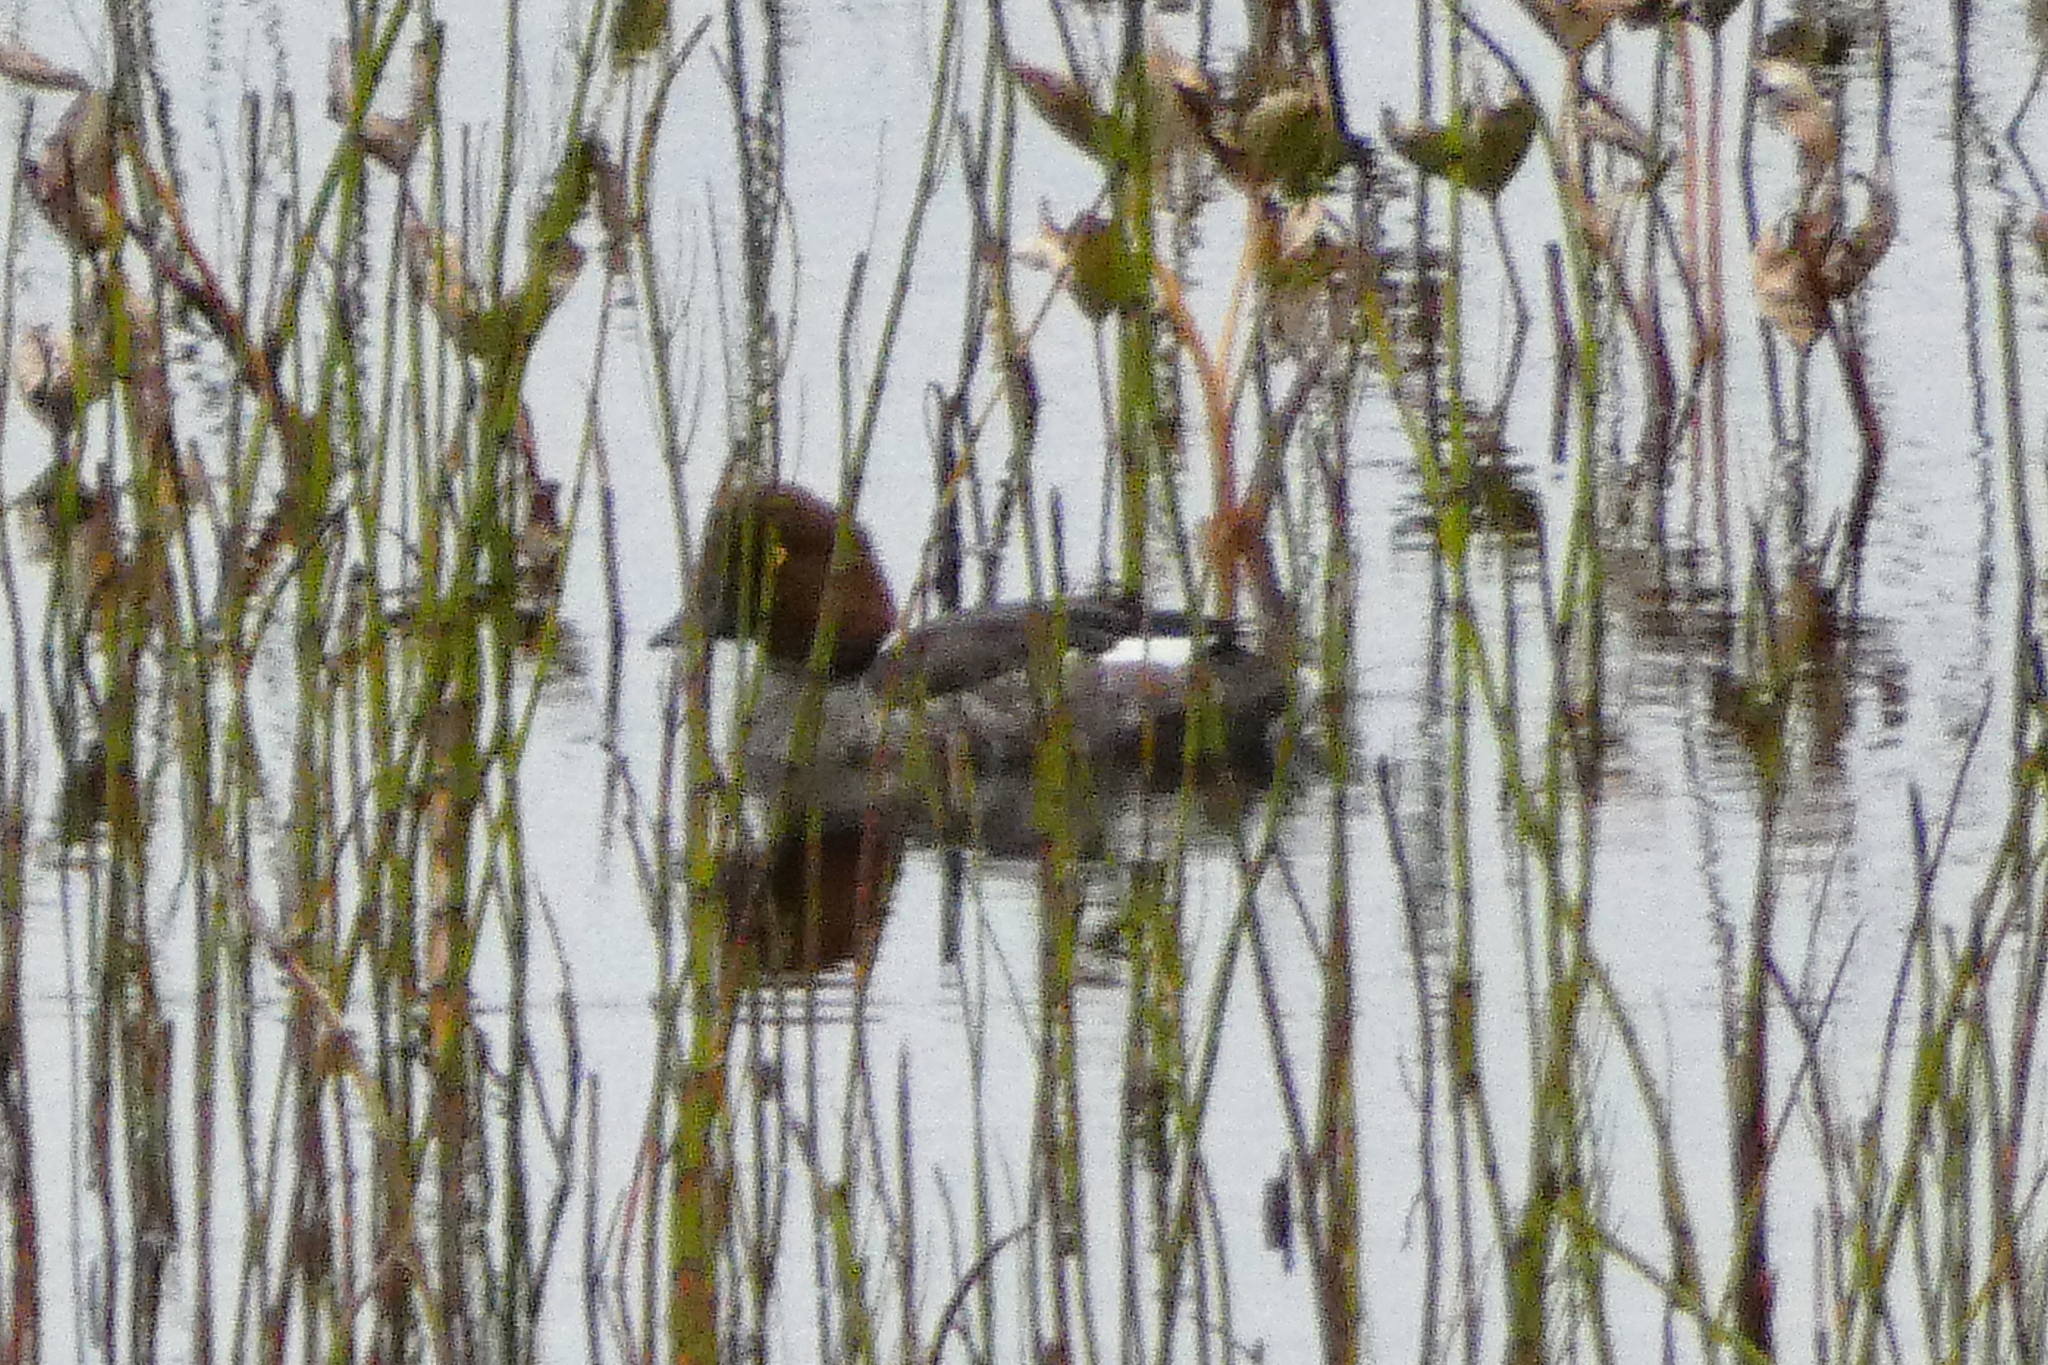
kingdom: Animalia
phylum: Chordata
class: Aves
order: Anseriformes
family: Anatidae
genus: Bucephala
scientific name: Bucephala clangula
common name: Common goldeneye
